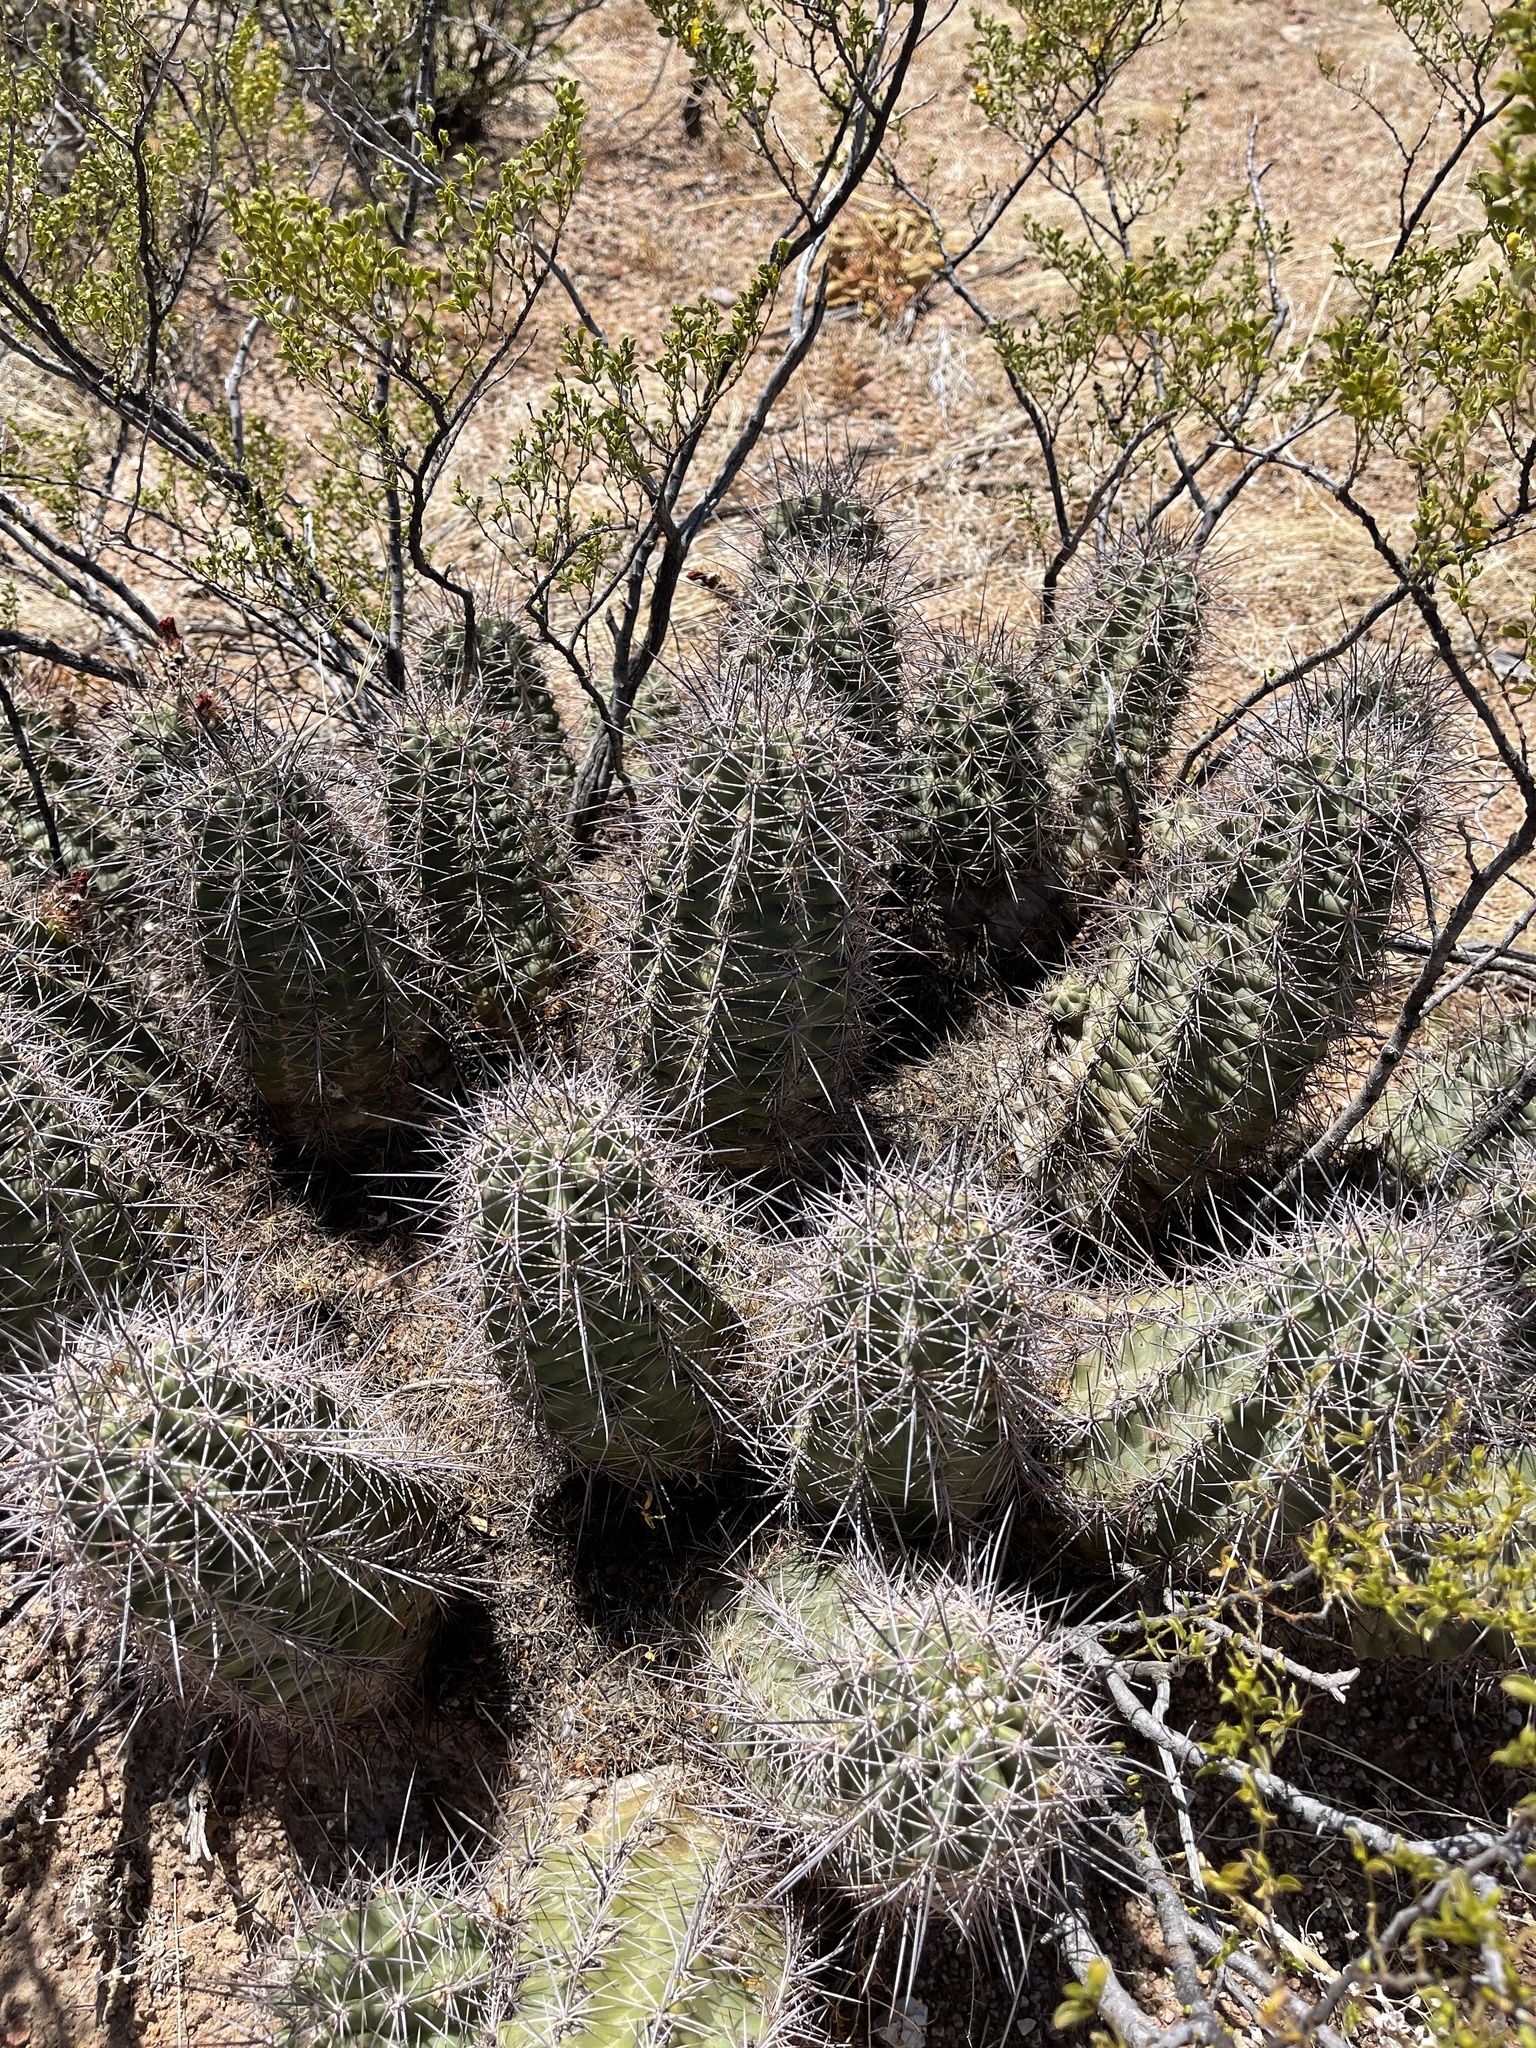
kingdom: Plantae
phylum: Tracheophyta
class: Magnoliopsida
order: Caryophyllales
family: Cactaceae
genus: Echinocereus
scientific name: Echinocereus coccineus
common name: Scarlet hedgehog cactus
